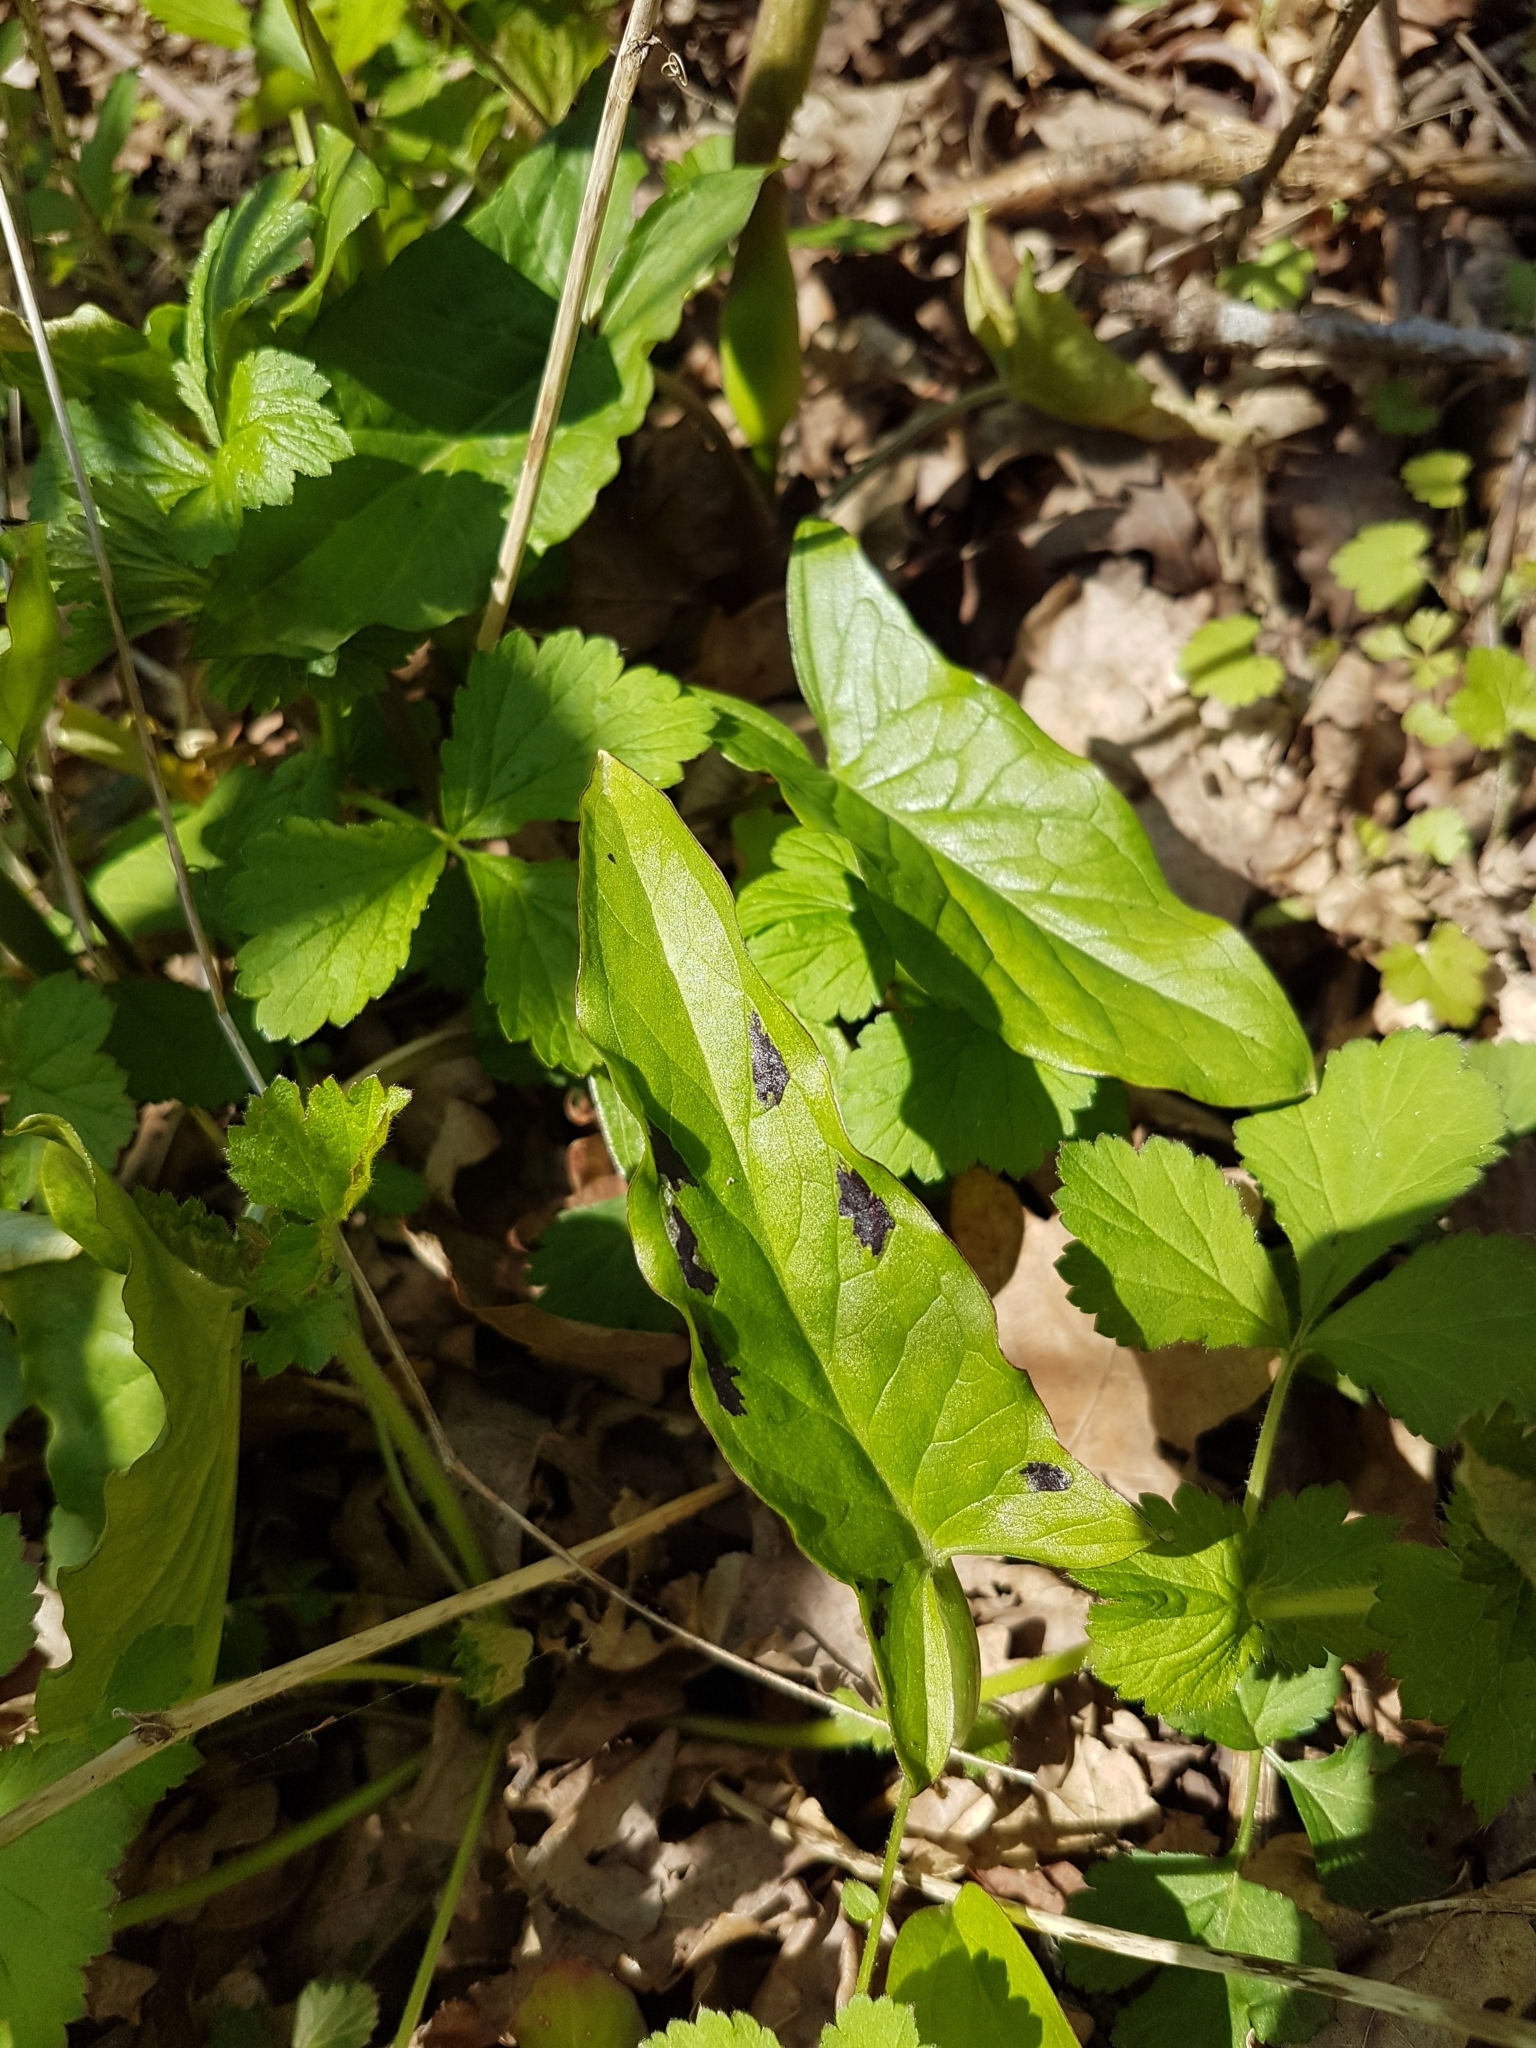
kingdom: Plantae
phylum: Tracheophyta
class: Liliopsida
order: Alismatales
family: Araceae
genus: Arum
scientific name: Arum maculatum
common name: Lords-and-ladies
